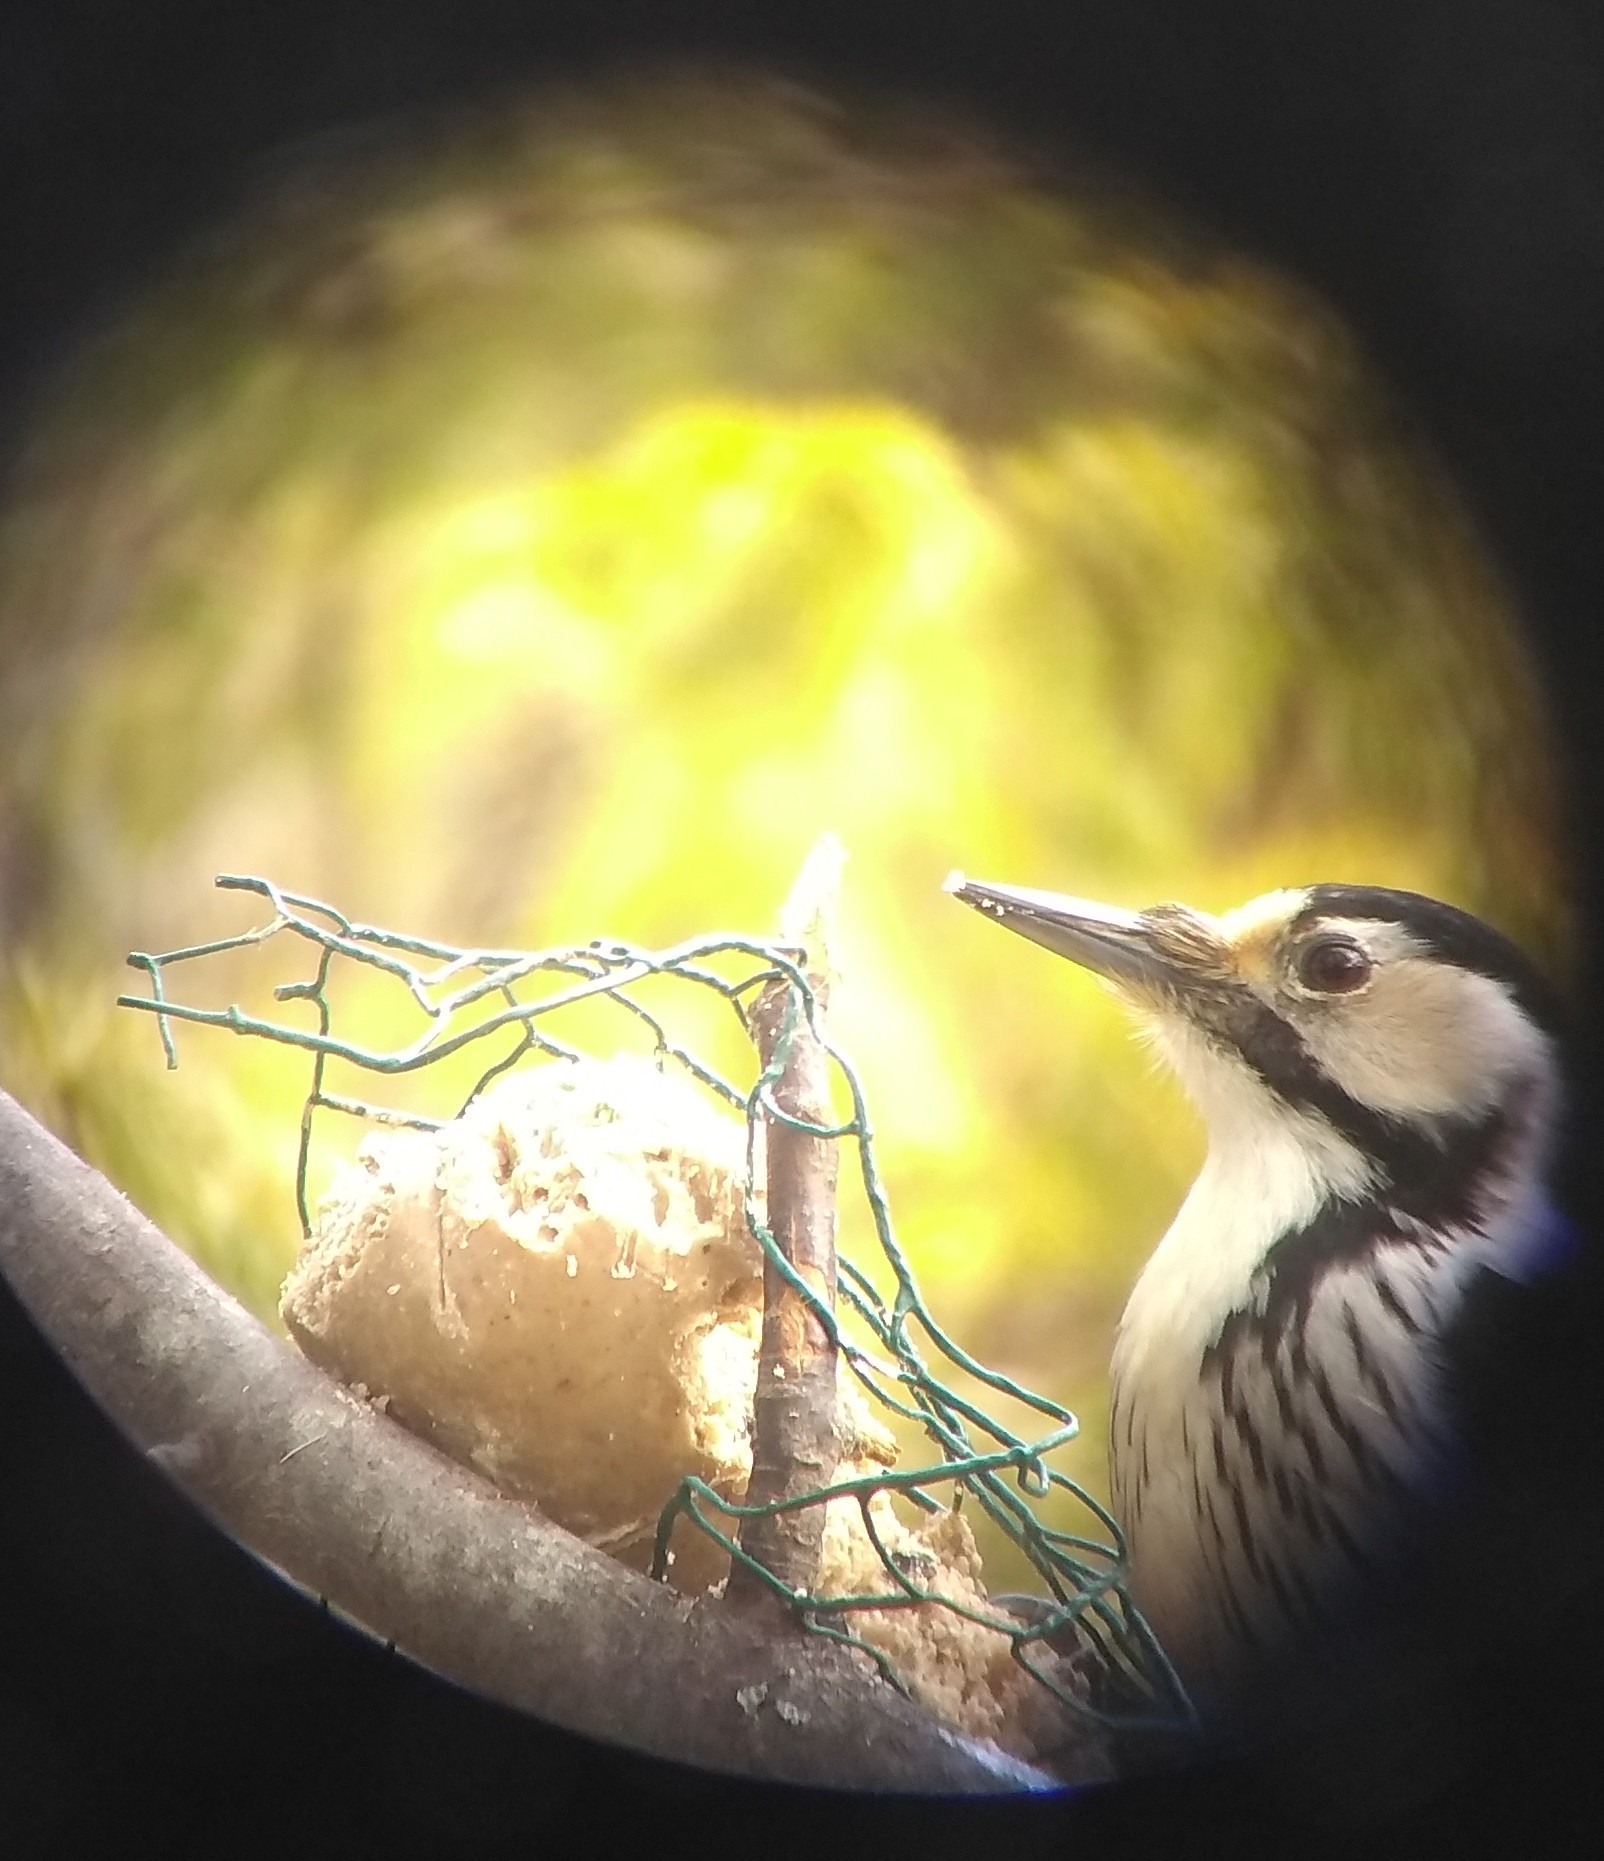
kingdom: Animalia
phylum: Chordata
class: Aves
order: Piciformes
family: Picidae
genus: Dendrocopos
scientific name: Dendrocopos leucotos
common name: White-backed woodpecker
